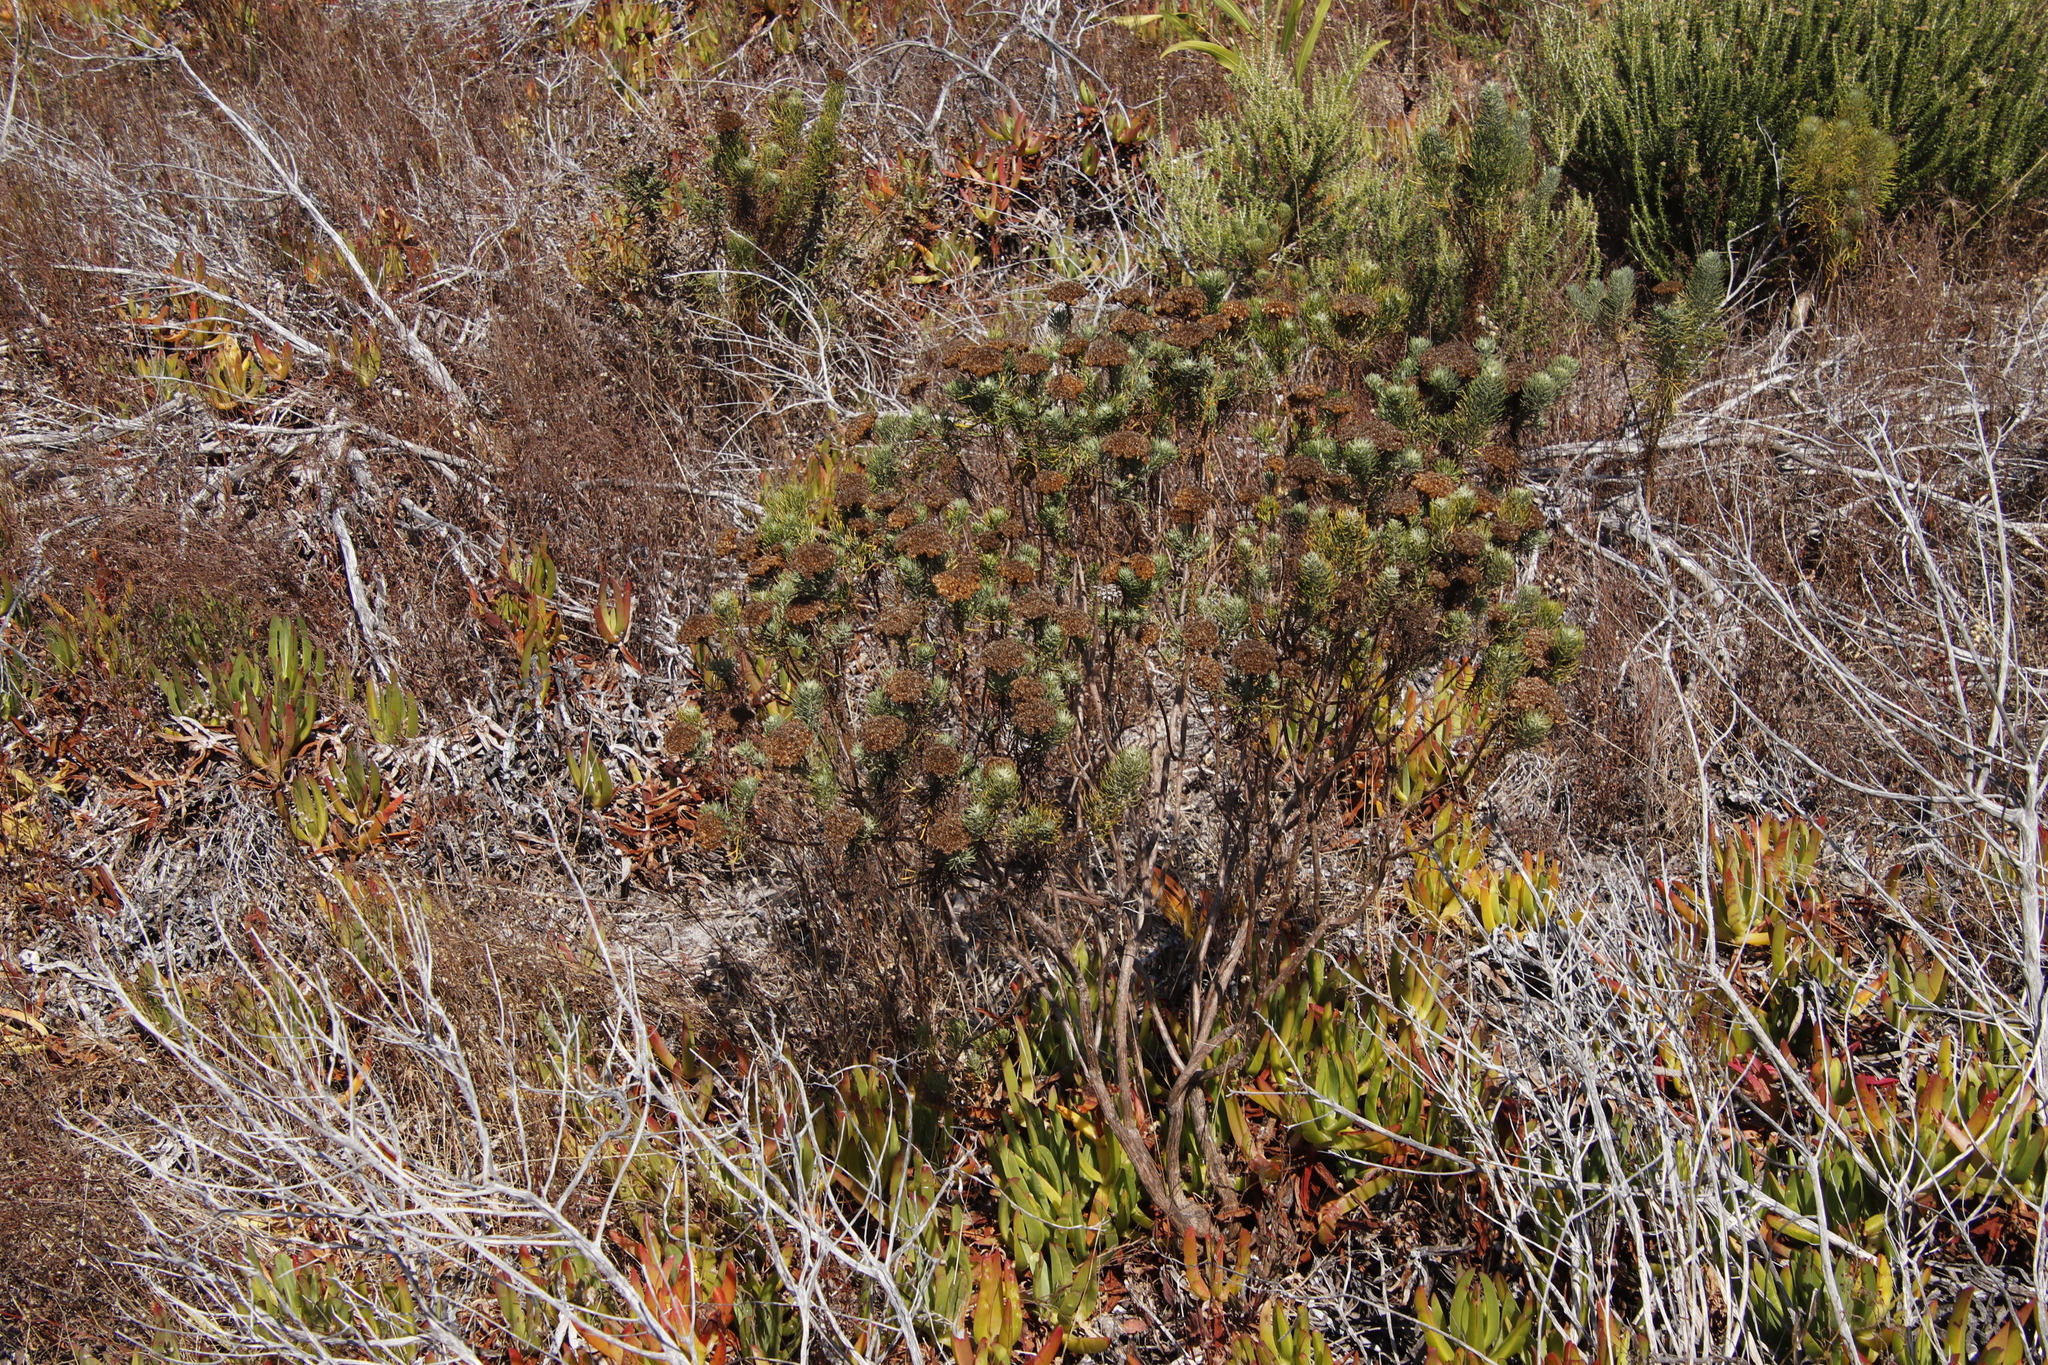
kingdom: Plantae
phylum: Tracheophyta
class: Magnoliopsida
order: Asterales
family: Asteraceae
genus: Athanasia
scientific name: Athanasia crithmifolia
